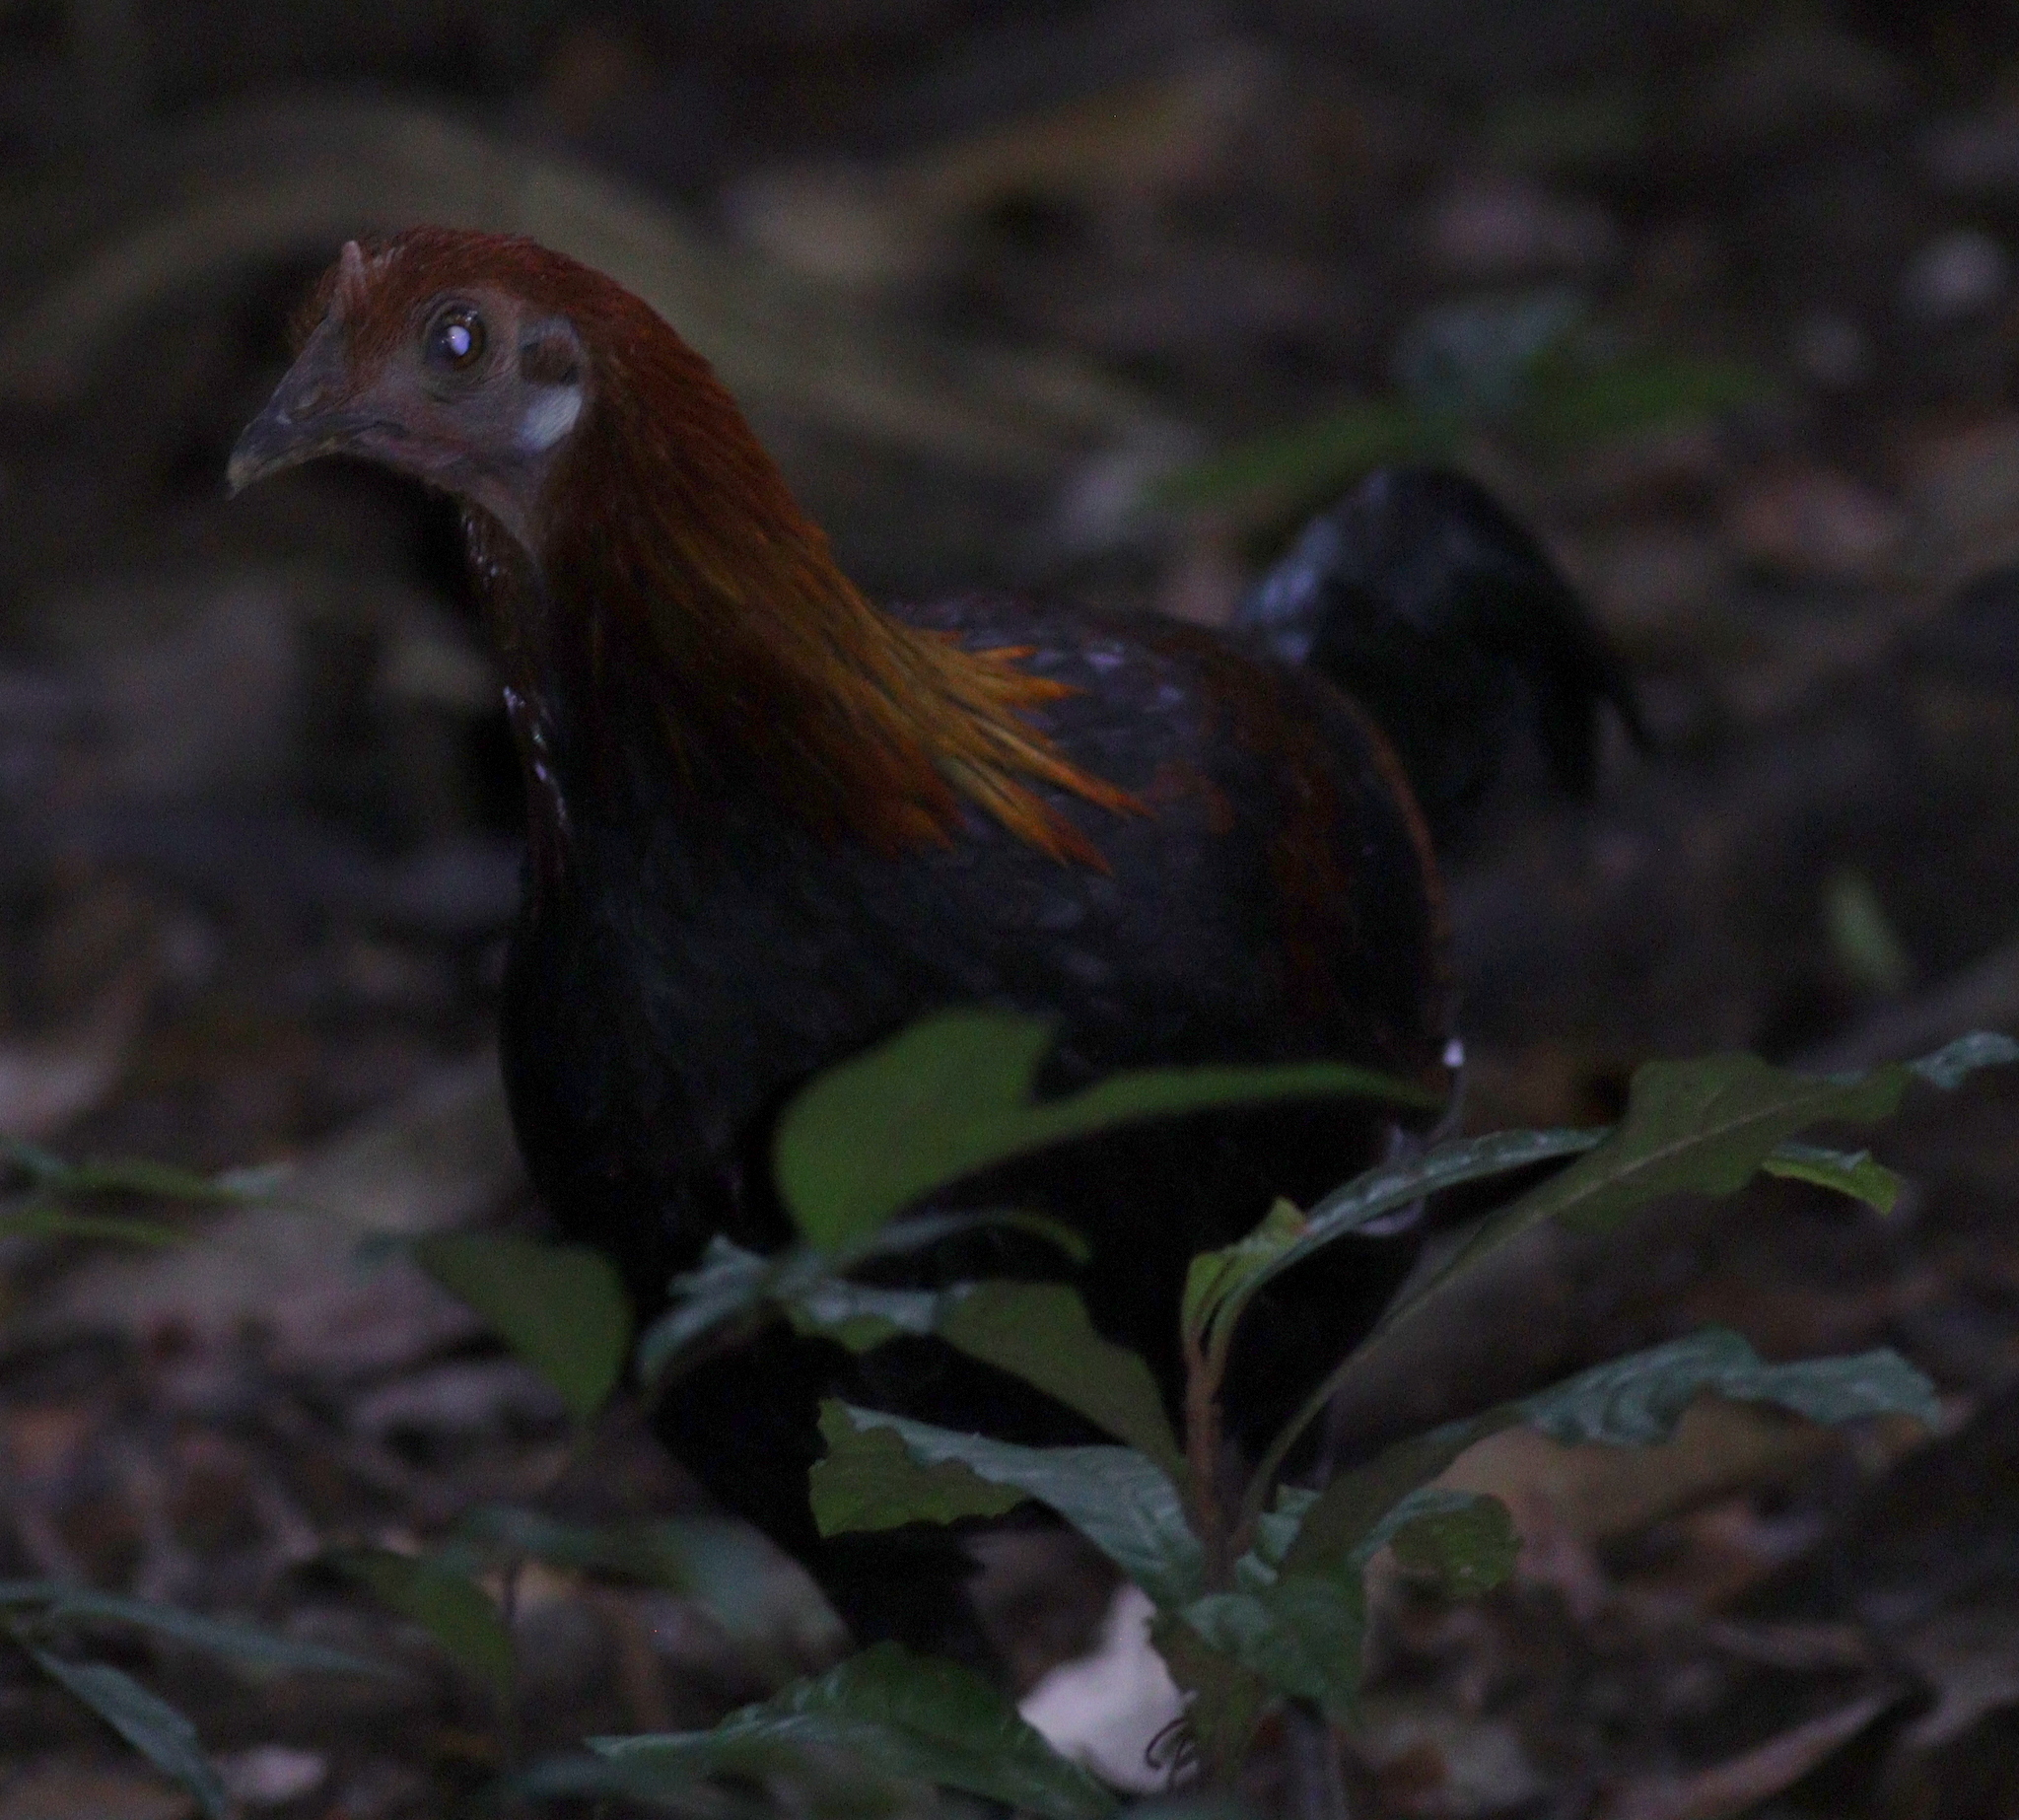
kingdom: Animalia
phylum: Chordata
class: Aves
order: Galliformes
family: Phasianidae
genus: Gallus
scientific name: Gallus gallus
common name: Red junglefowl
